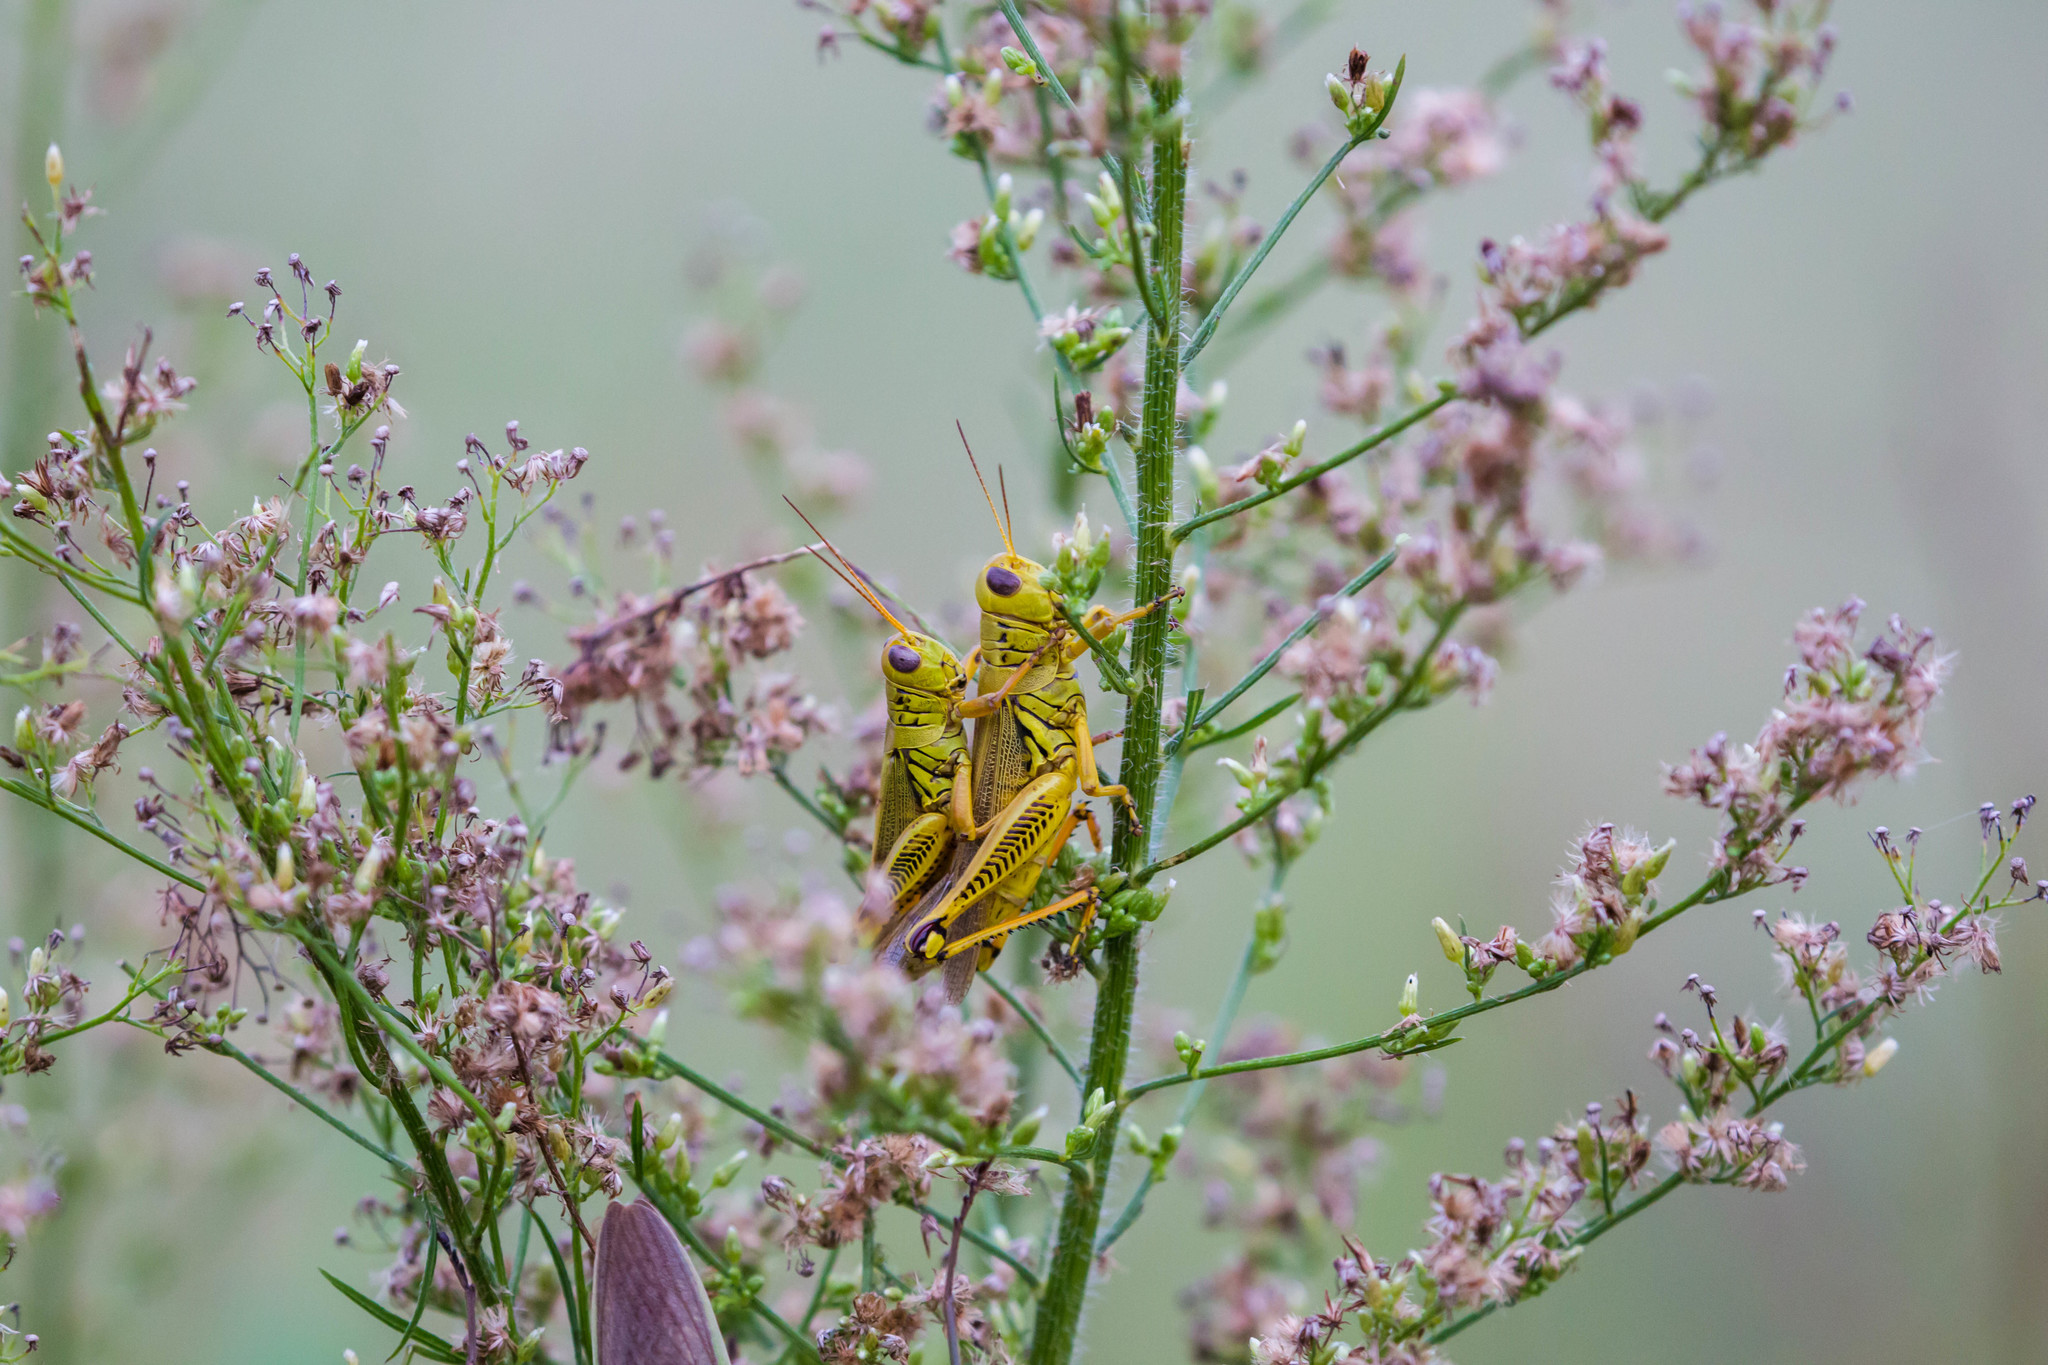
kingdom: Animalia
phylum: Arthropoda
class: Insecta
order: Orthoptera
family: Acrididae
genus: Melanoplus
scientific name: Melanoplus differentialis
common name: Differential grasshopper
